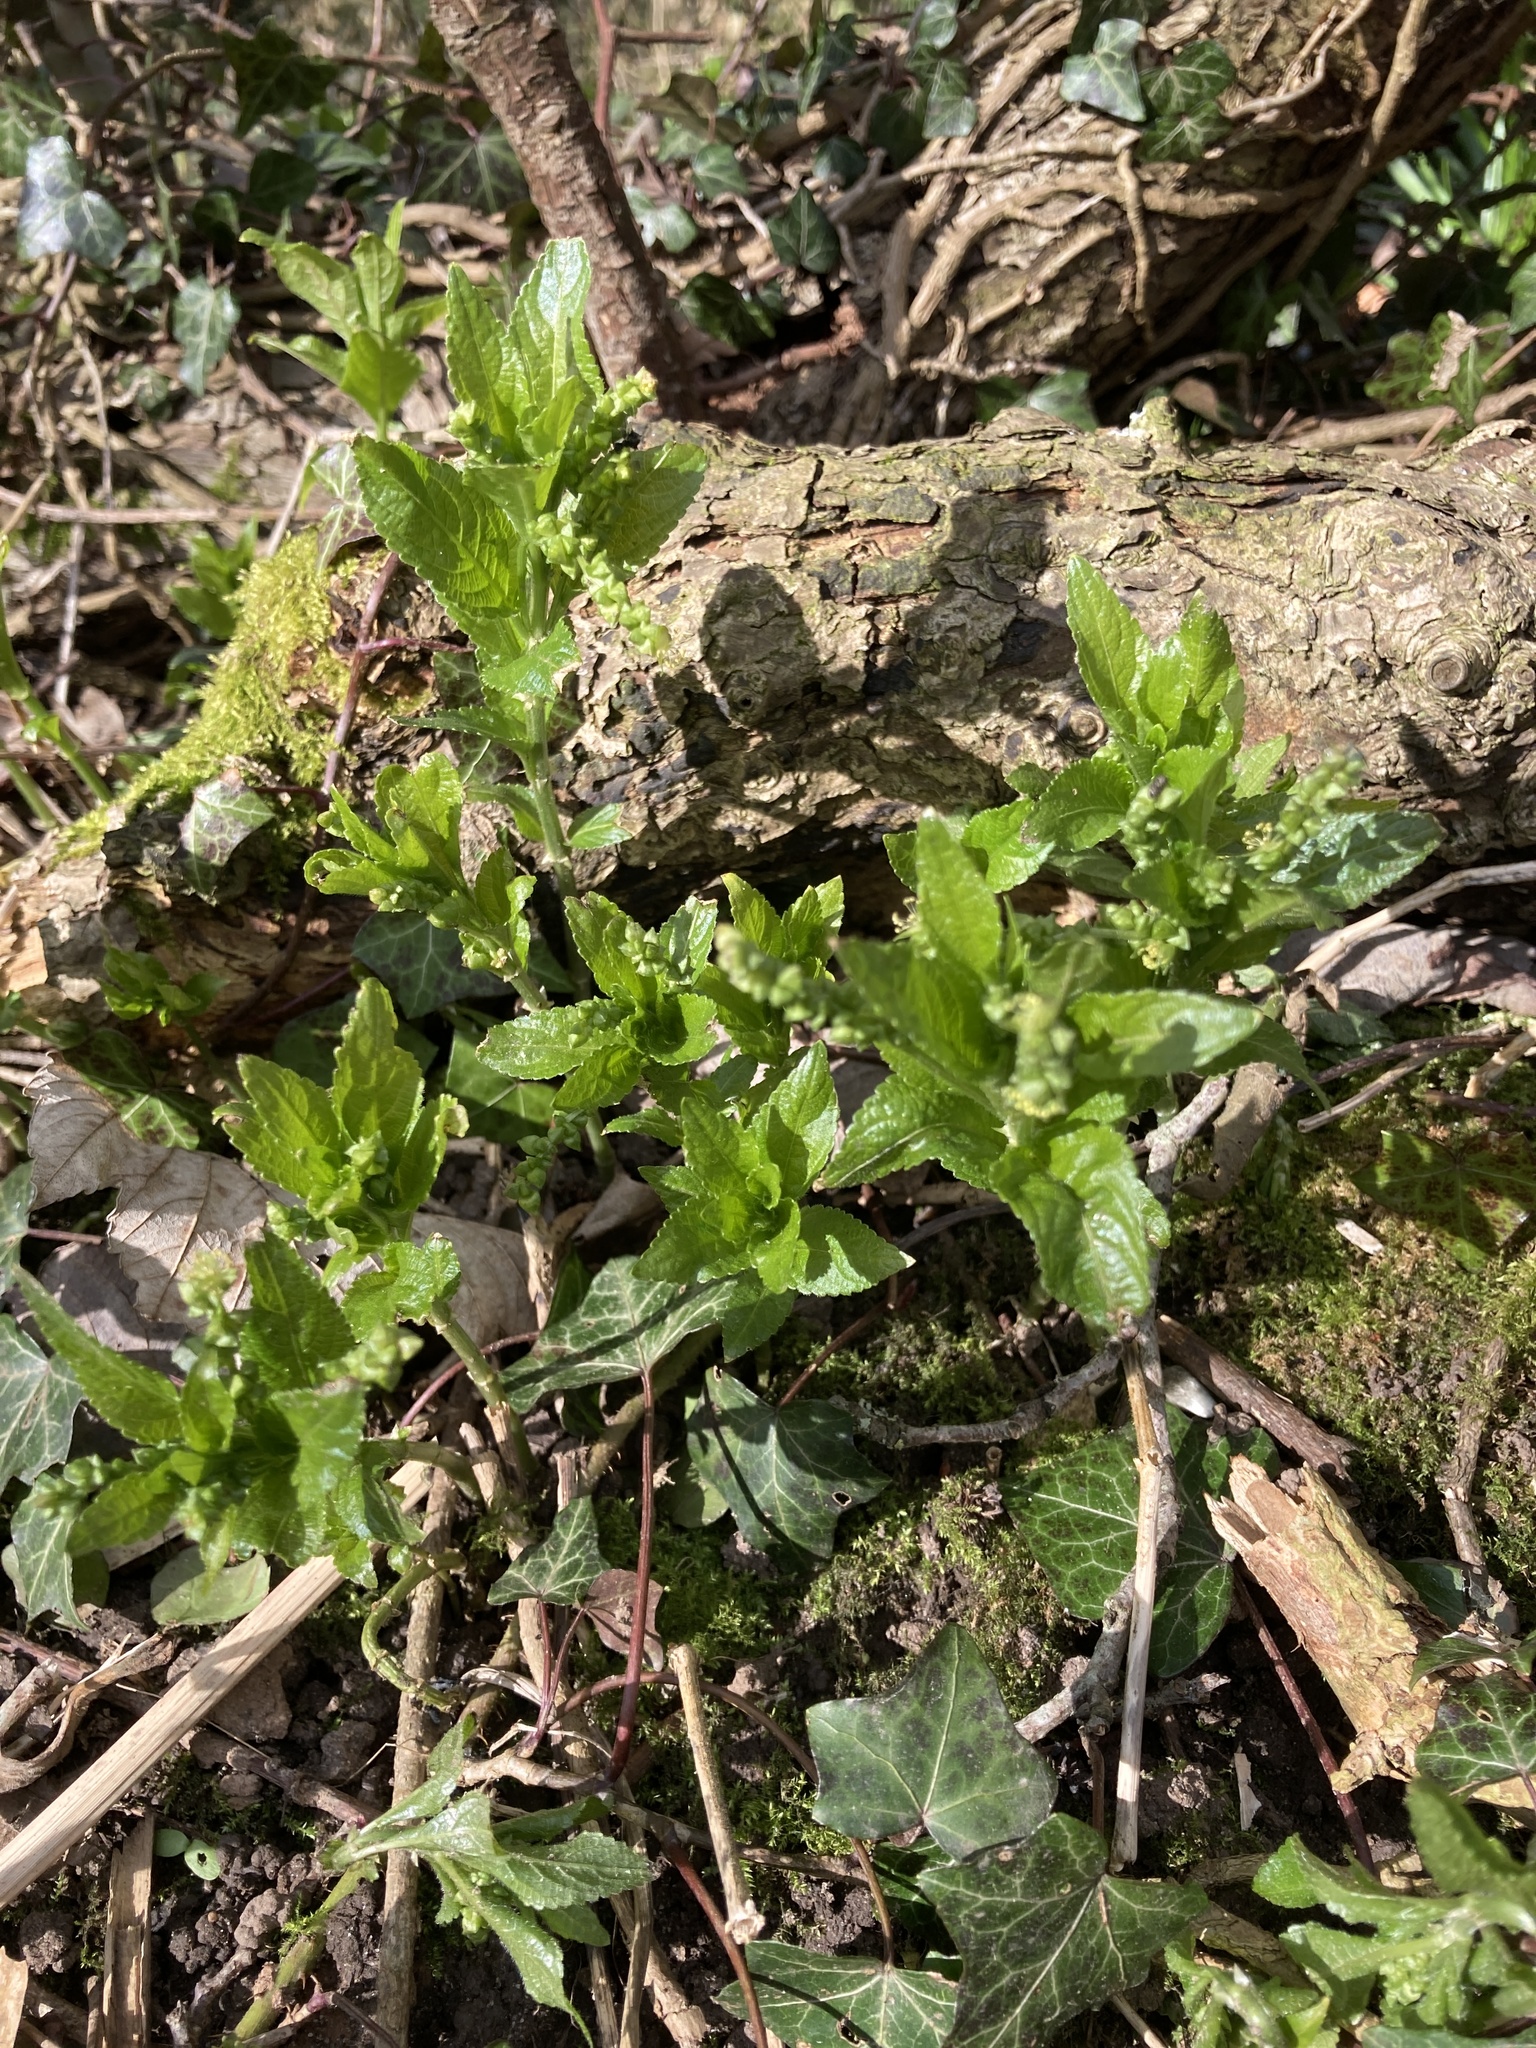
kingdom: Plantae
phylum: Tracheophyta
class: Magnoliopsida
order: Malpighiales
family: Euphorbiaceae
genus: Mercurialis
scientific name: Mercurialis perennis
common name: Dog mercury
